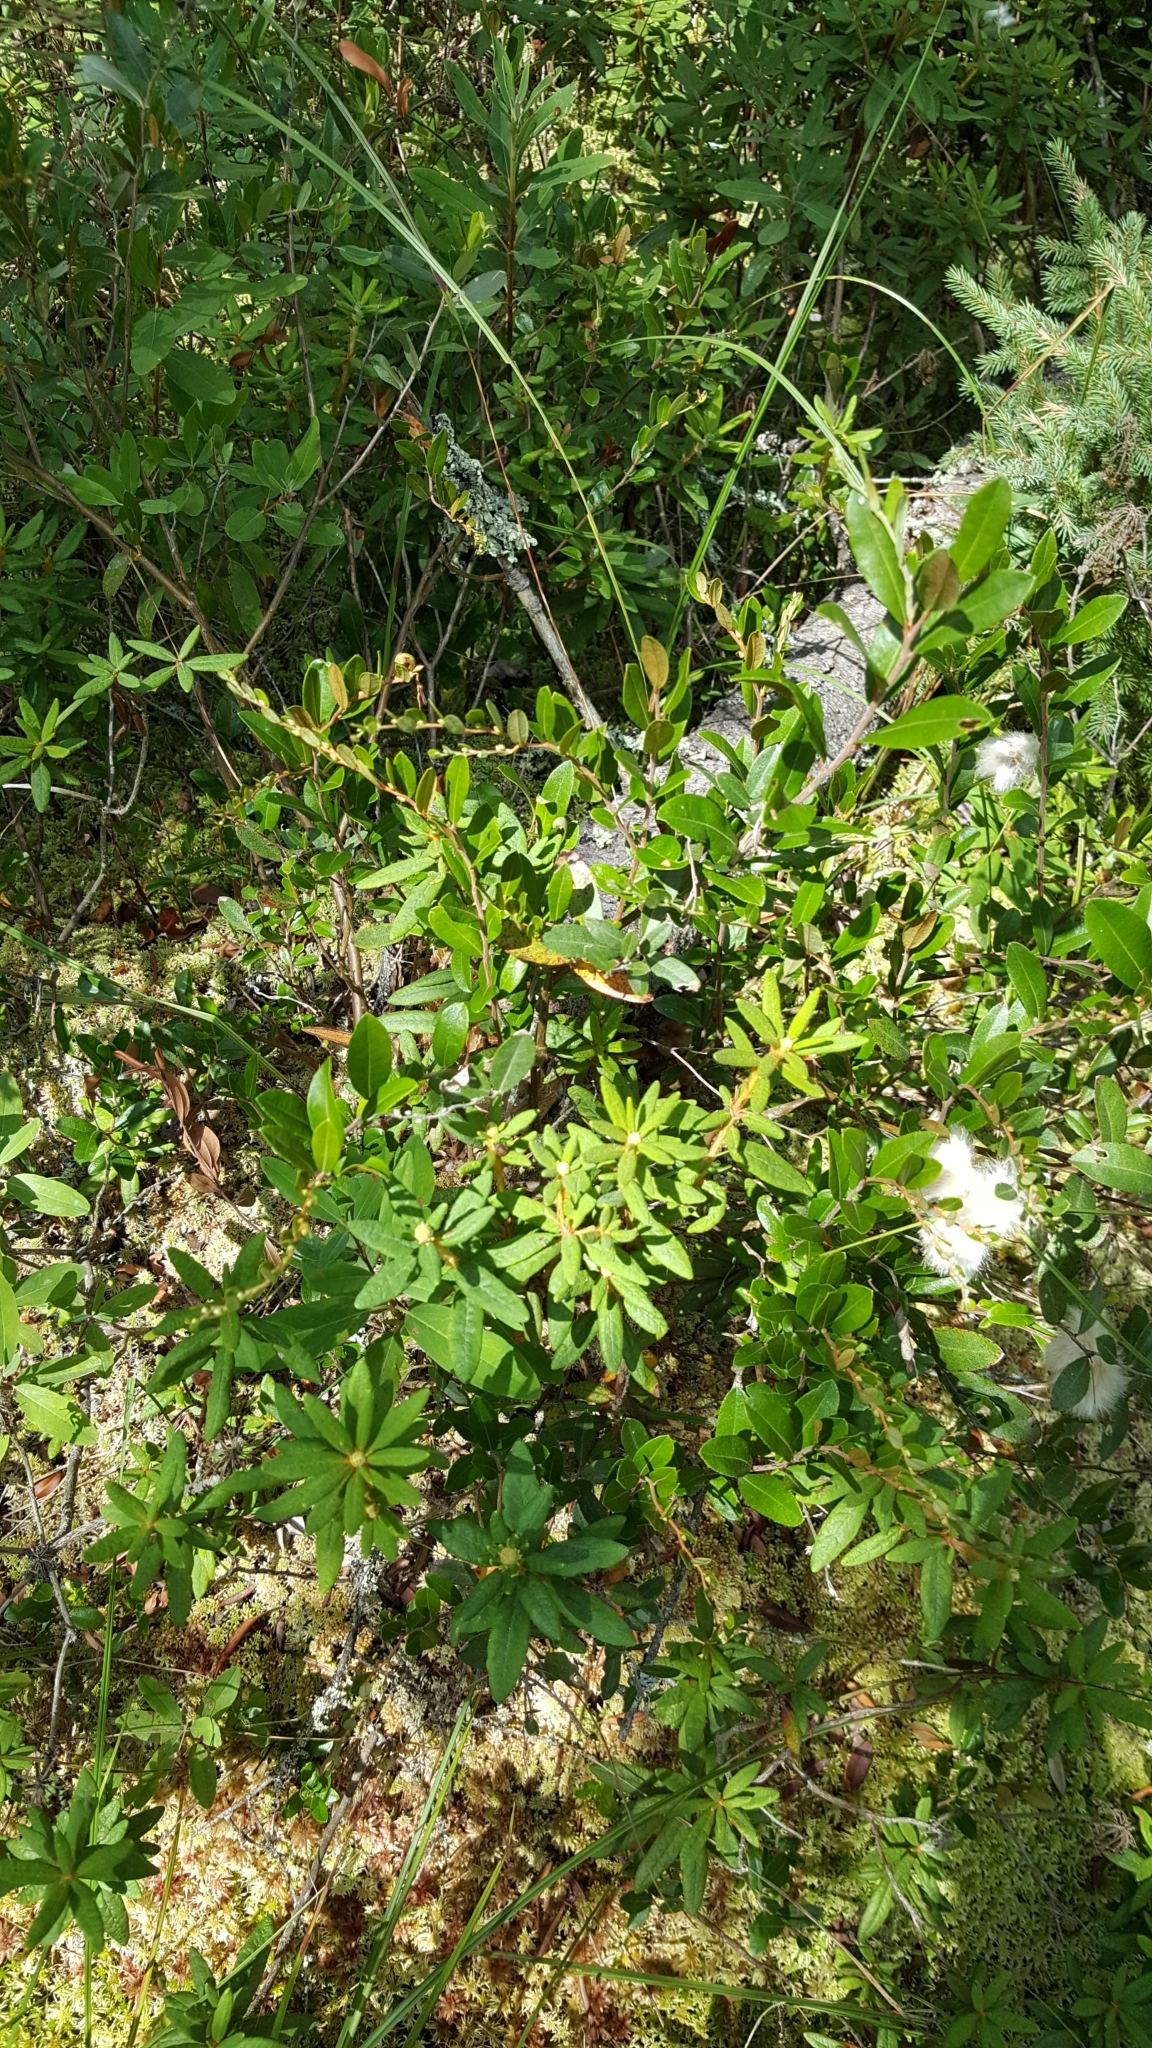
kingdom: Plantae
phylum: Tracheophyta
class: Magnoliopsida
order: Ericales
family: Ericaceae
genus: Chamaedaphne
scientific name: Chamaedaphne calyculata
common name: Leatherleaf
